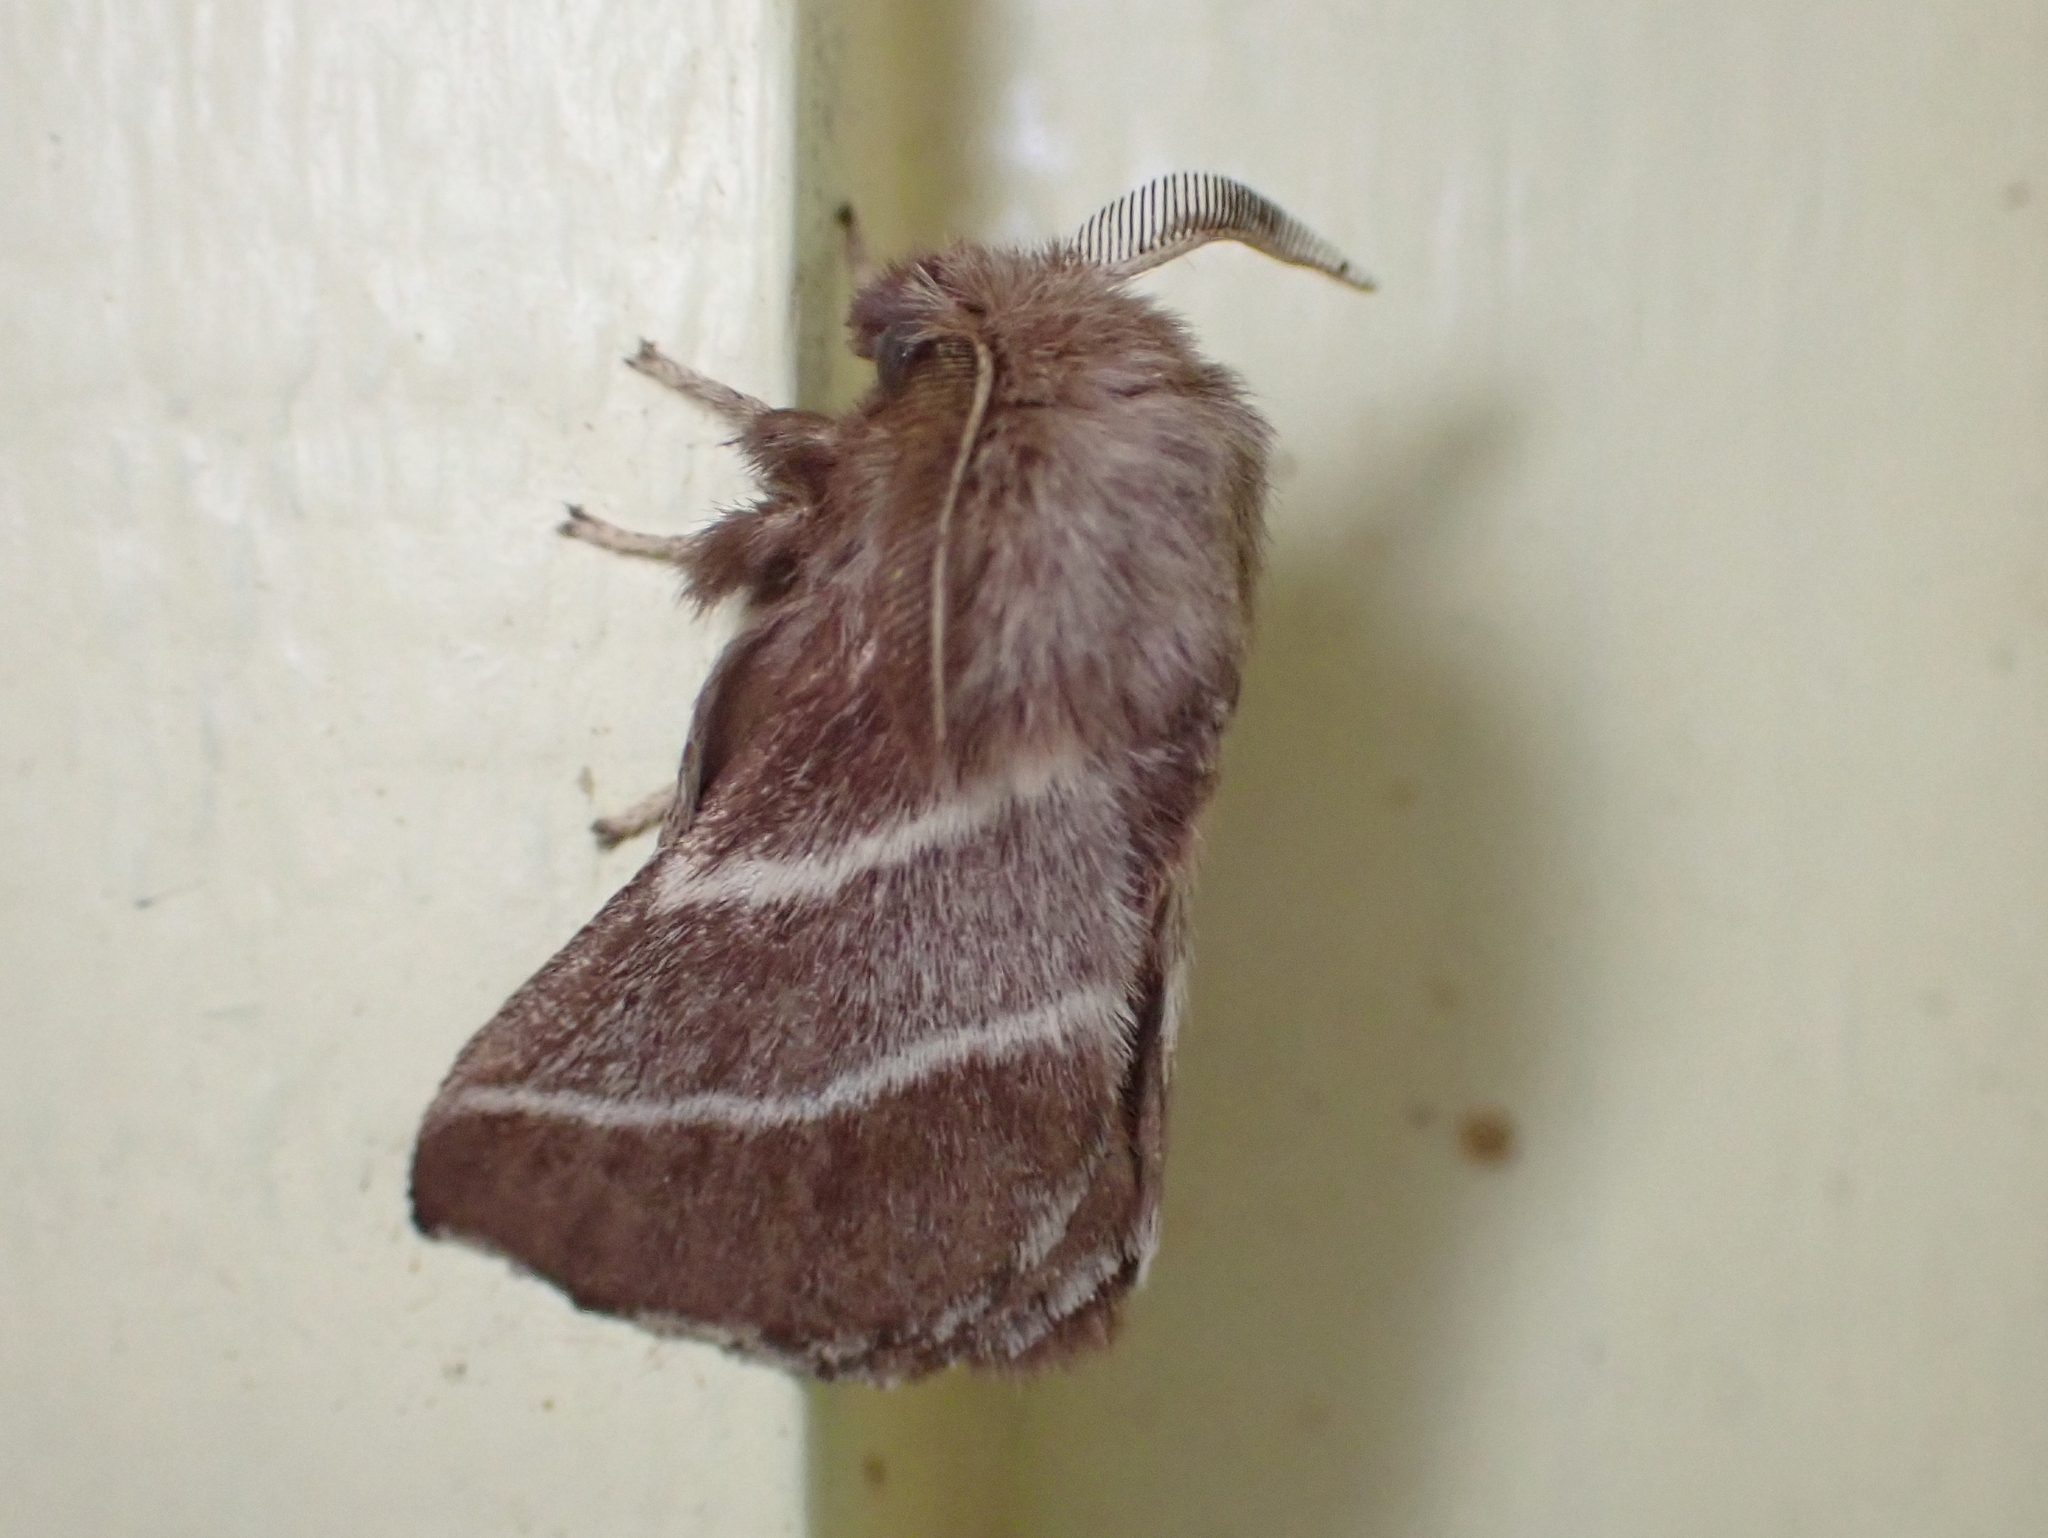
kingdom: Animalia
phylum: Arthropoda
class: Insecta
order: Lepidoptera
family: Lasiocampidae
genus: Malacosoma
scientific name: Malacosoma americana
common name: Eastern tent caterpillar moth
